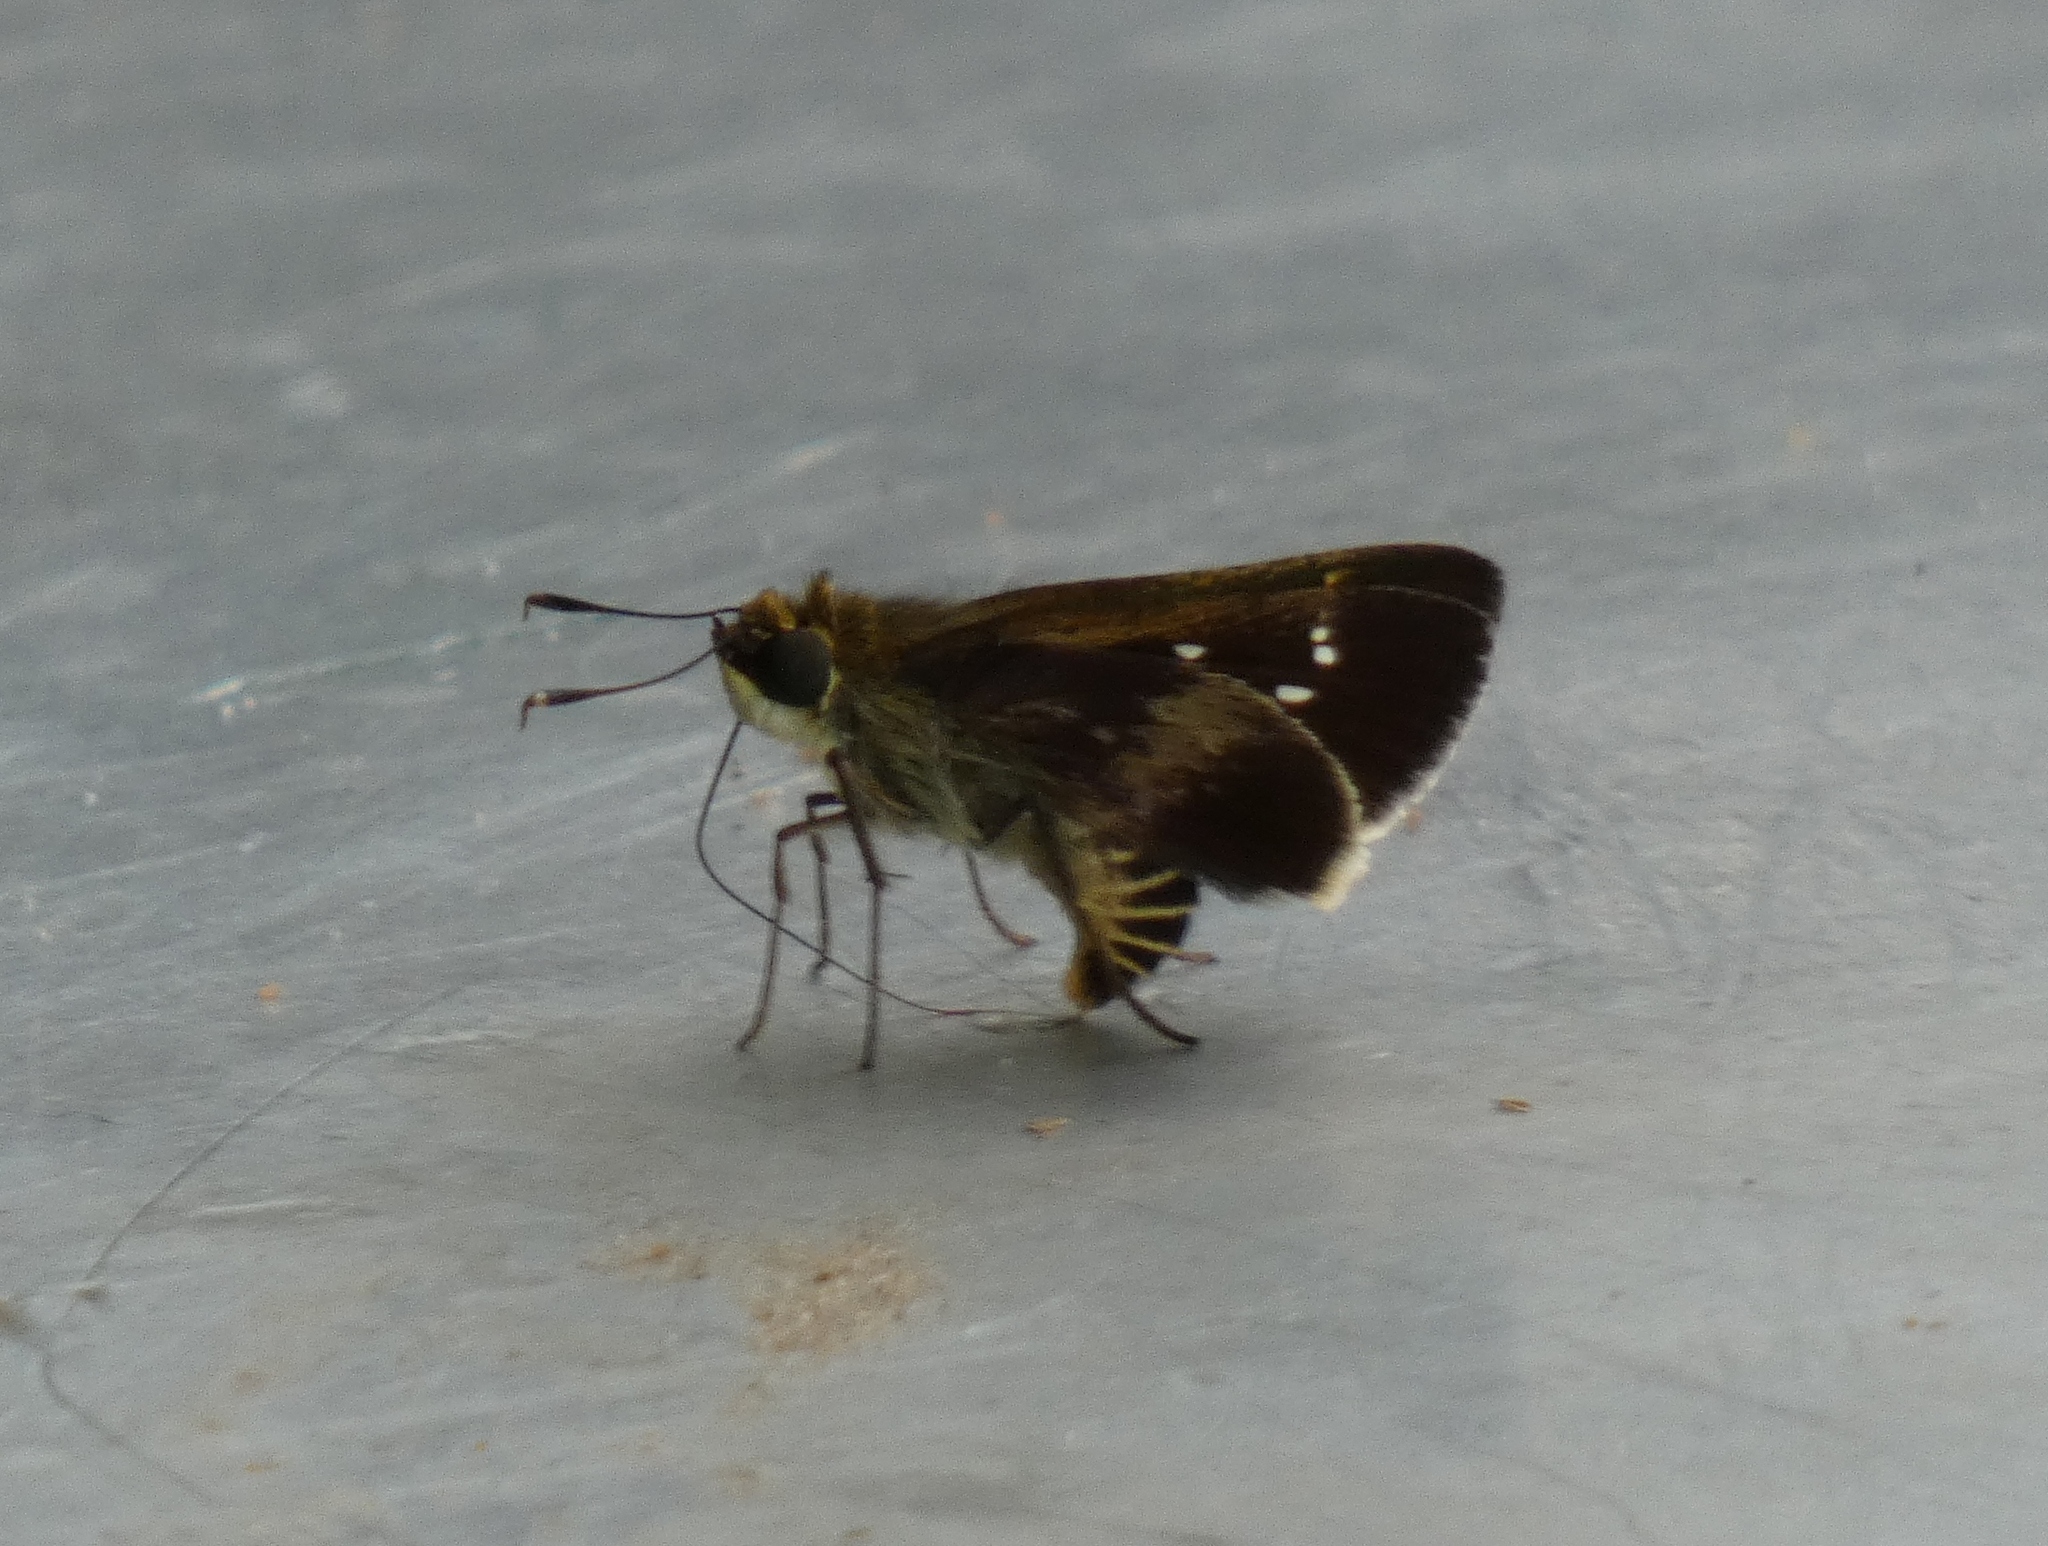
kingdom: Animalia
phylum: Arthropoda
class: Insecta
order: Lepidoptera
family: Hesperiidae
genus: Platylesches
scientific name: Platylesches moritili
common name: Honey hopper
